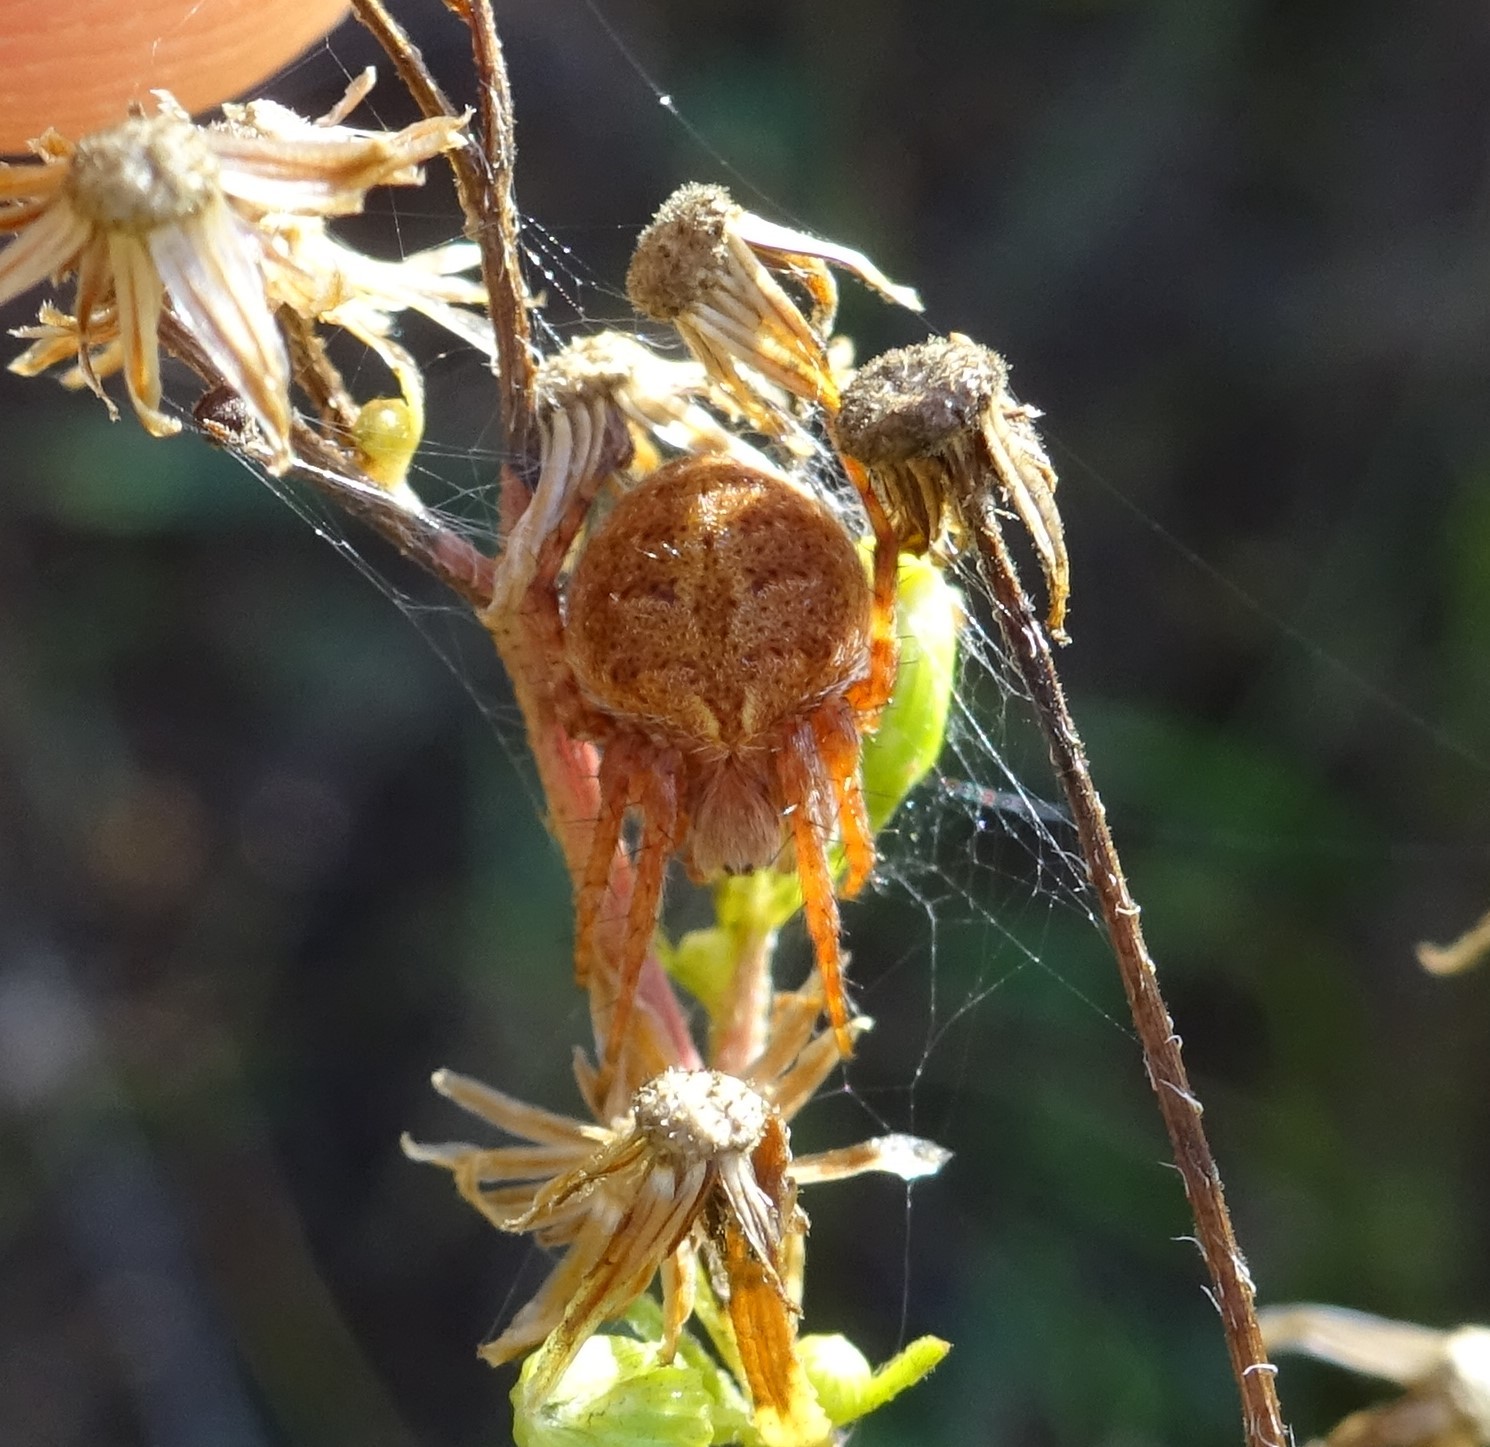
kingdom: Animalia
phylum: Arthropoda
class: Arachnida
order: Araneae
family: Araneidae
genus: Agalenatea
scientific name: Agalenatea redii
